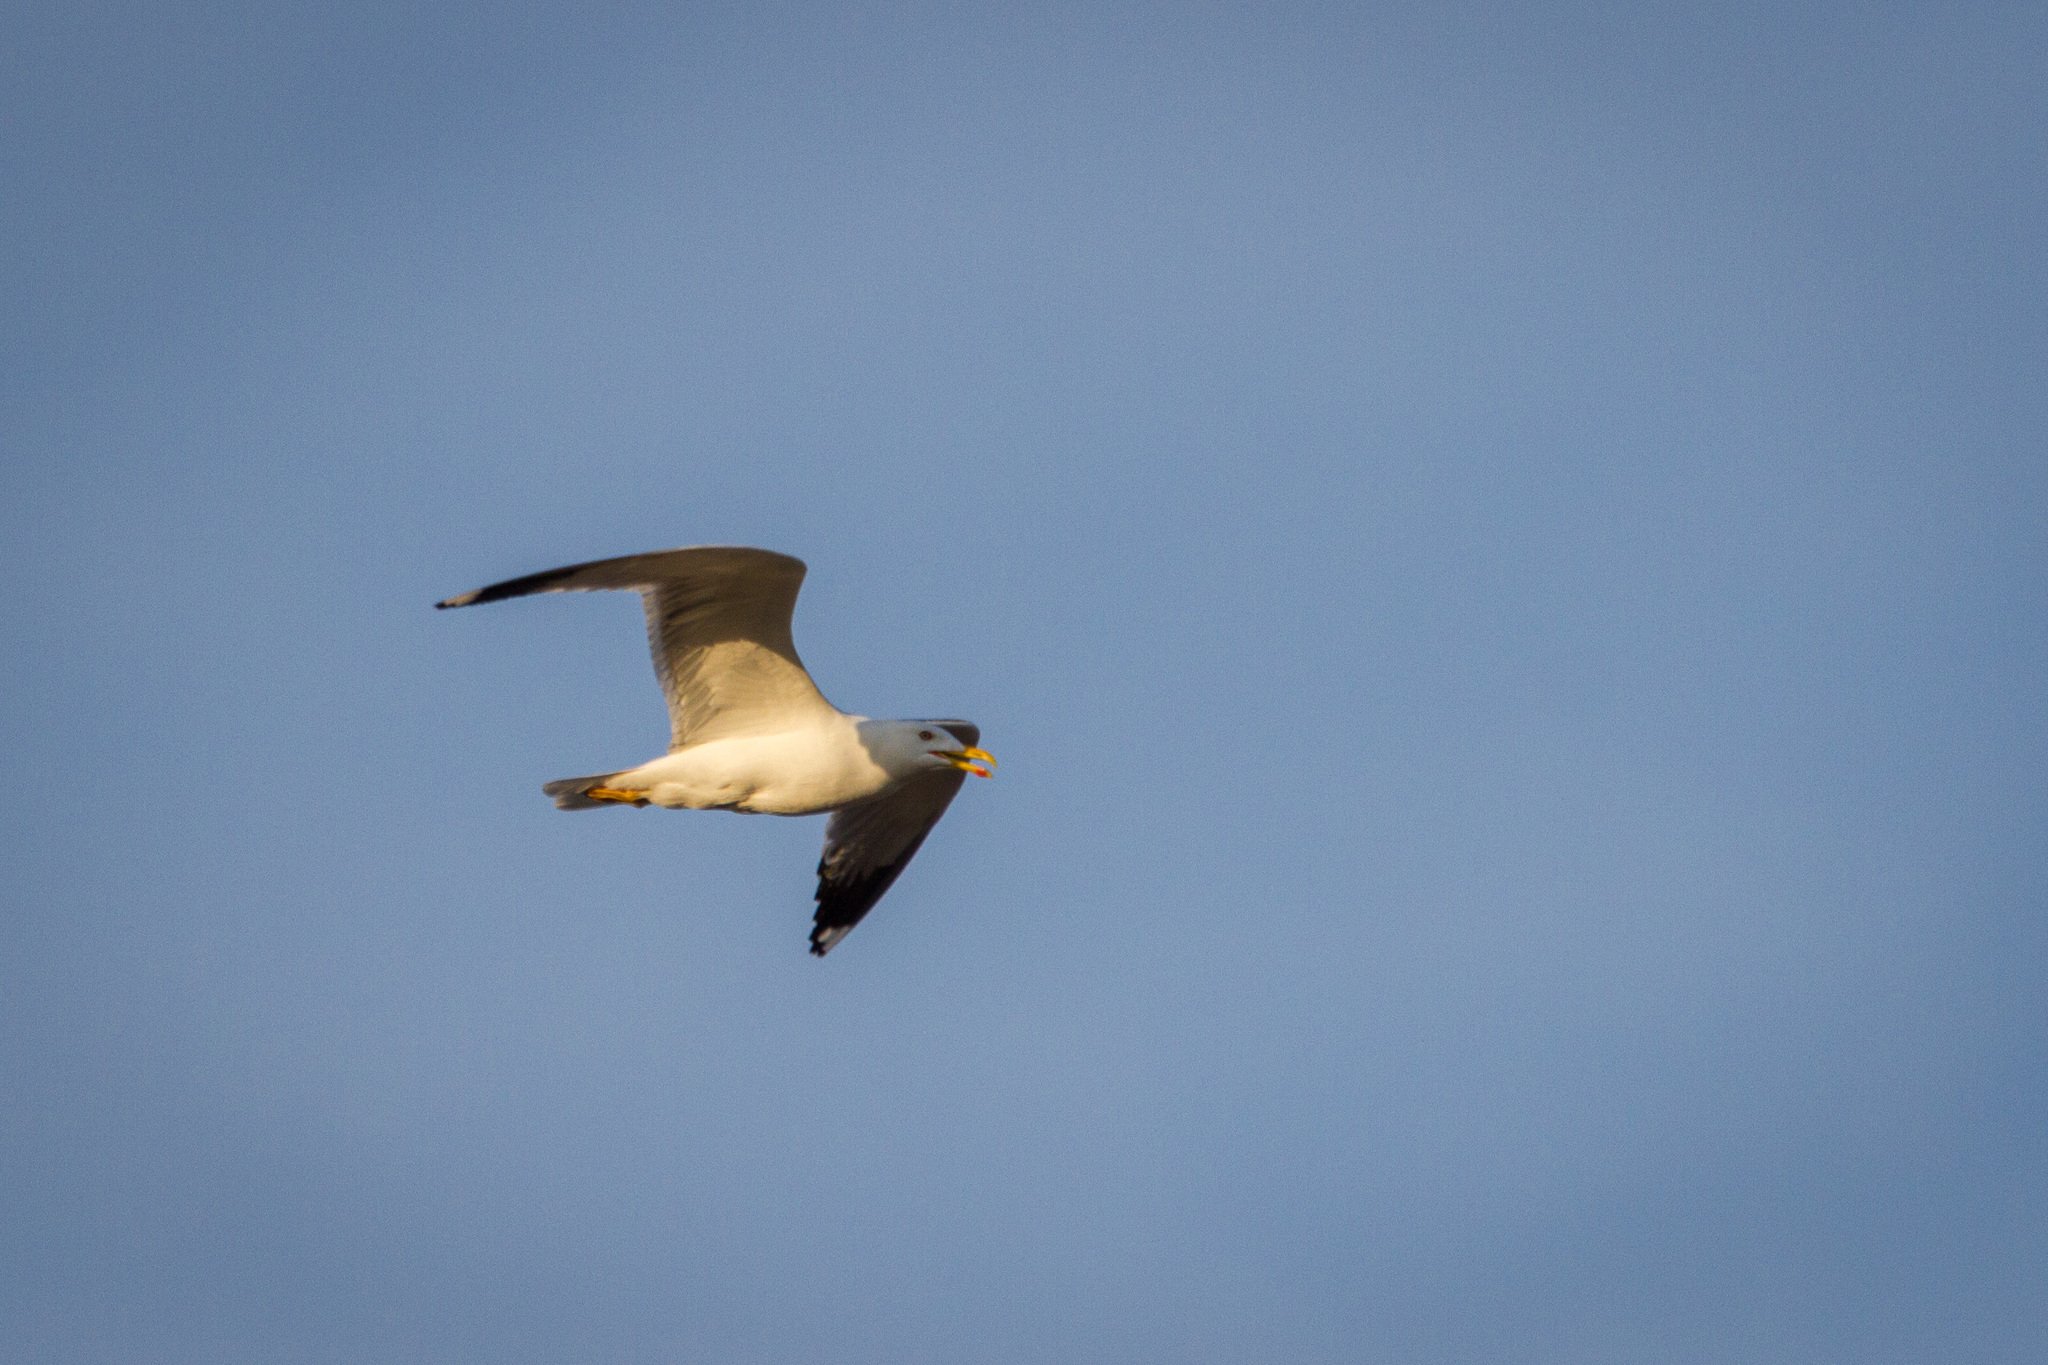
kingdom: Animalia
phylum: Chordata
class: Aves
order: Charadriiformes
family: Laridae
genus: Larus
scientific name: Larus fuscus
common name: Lesser black-backed gull
